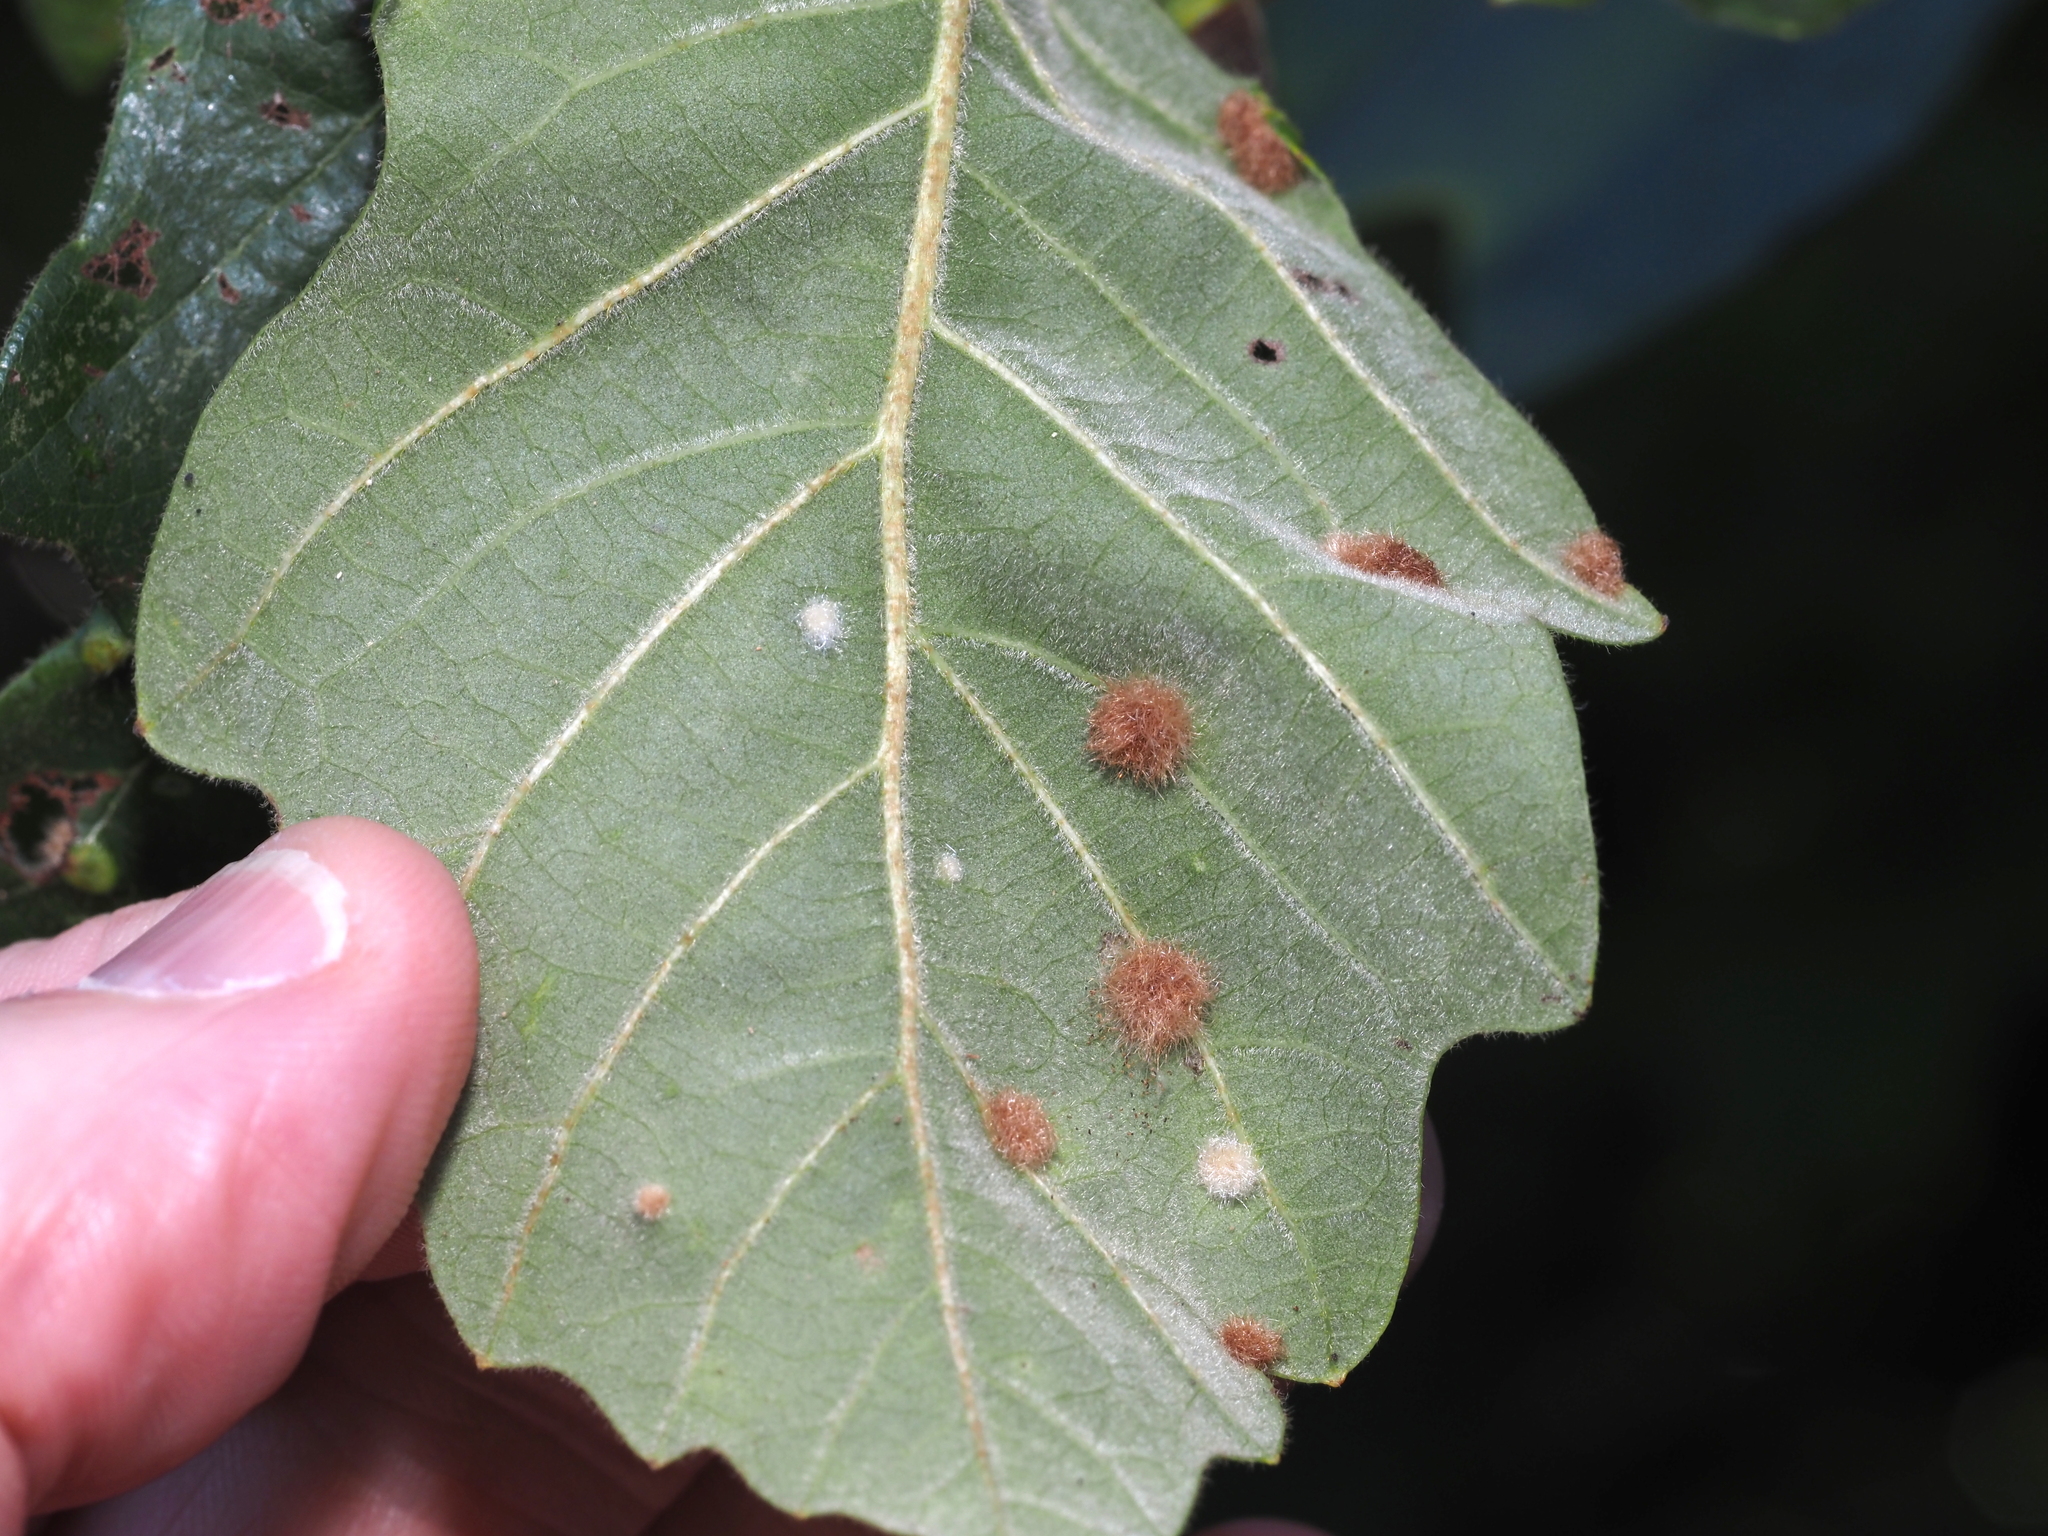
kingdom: Animalia
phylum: Arthropoda
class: Insecta
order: Hymenoptera
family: Cynipidae
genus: Neuroterus
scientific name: Neuroterus floccosus
